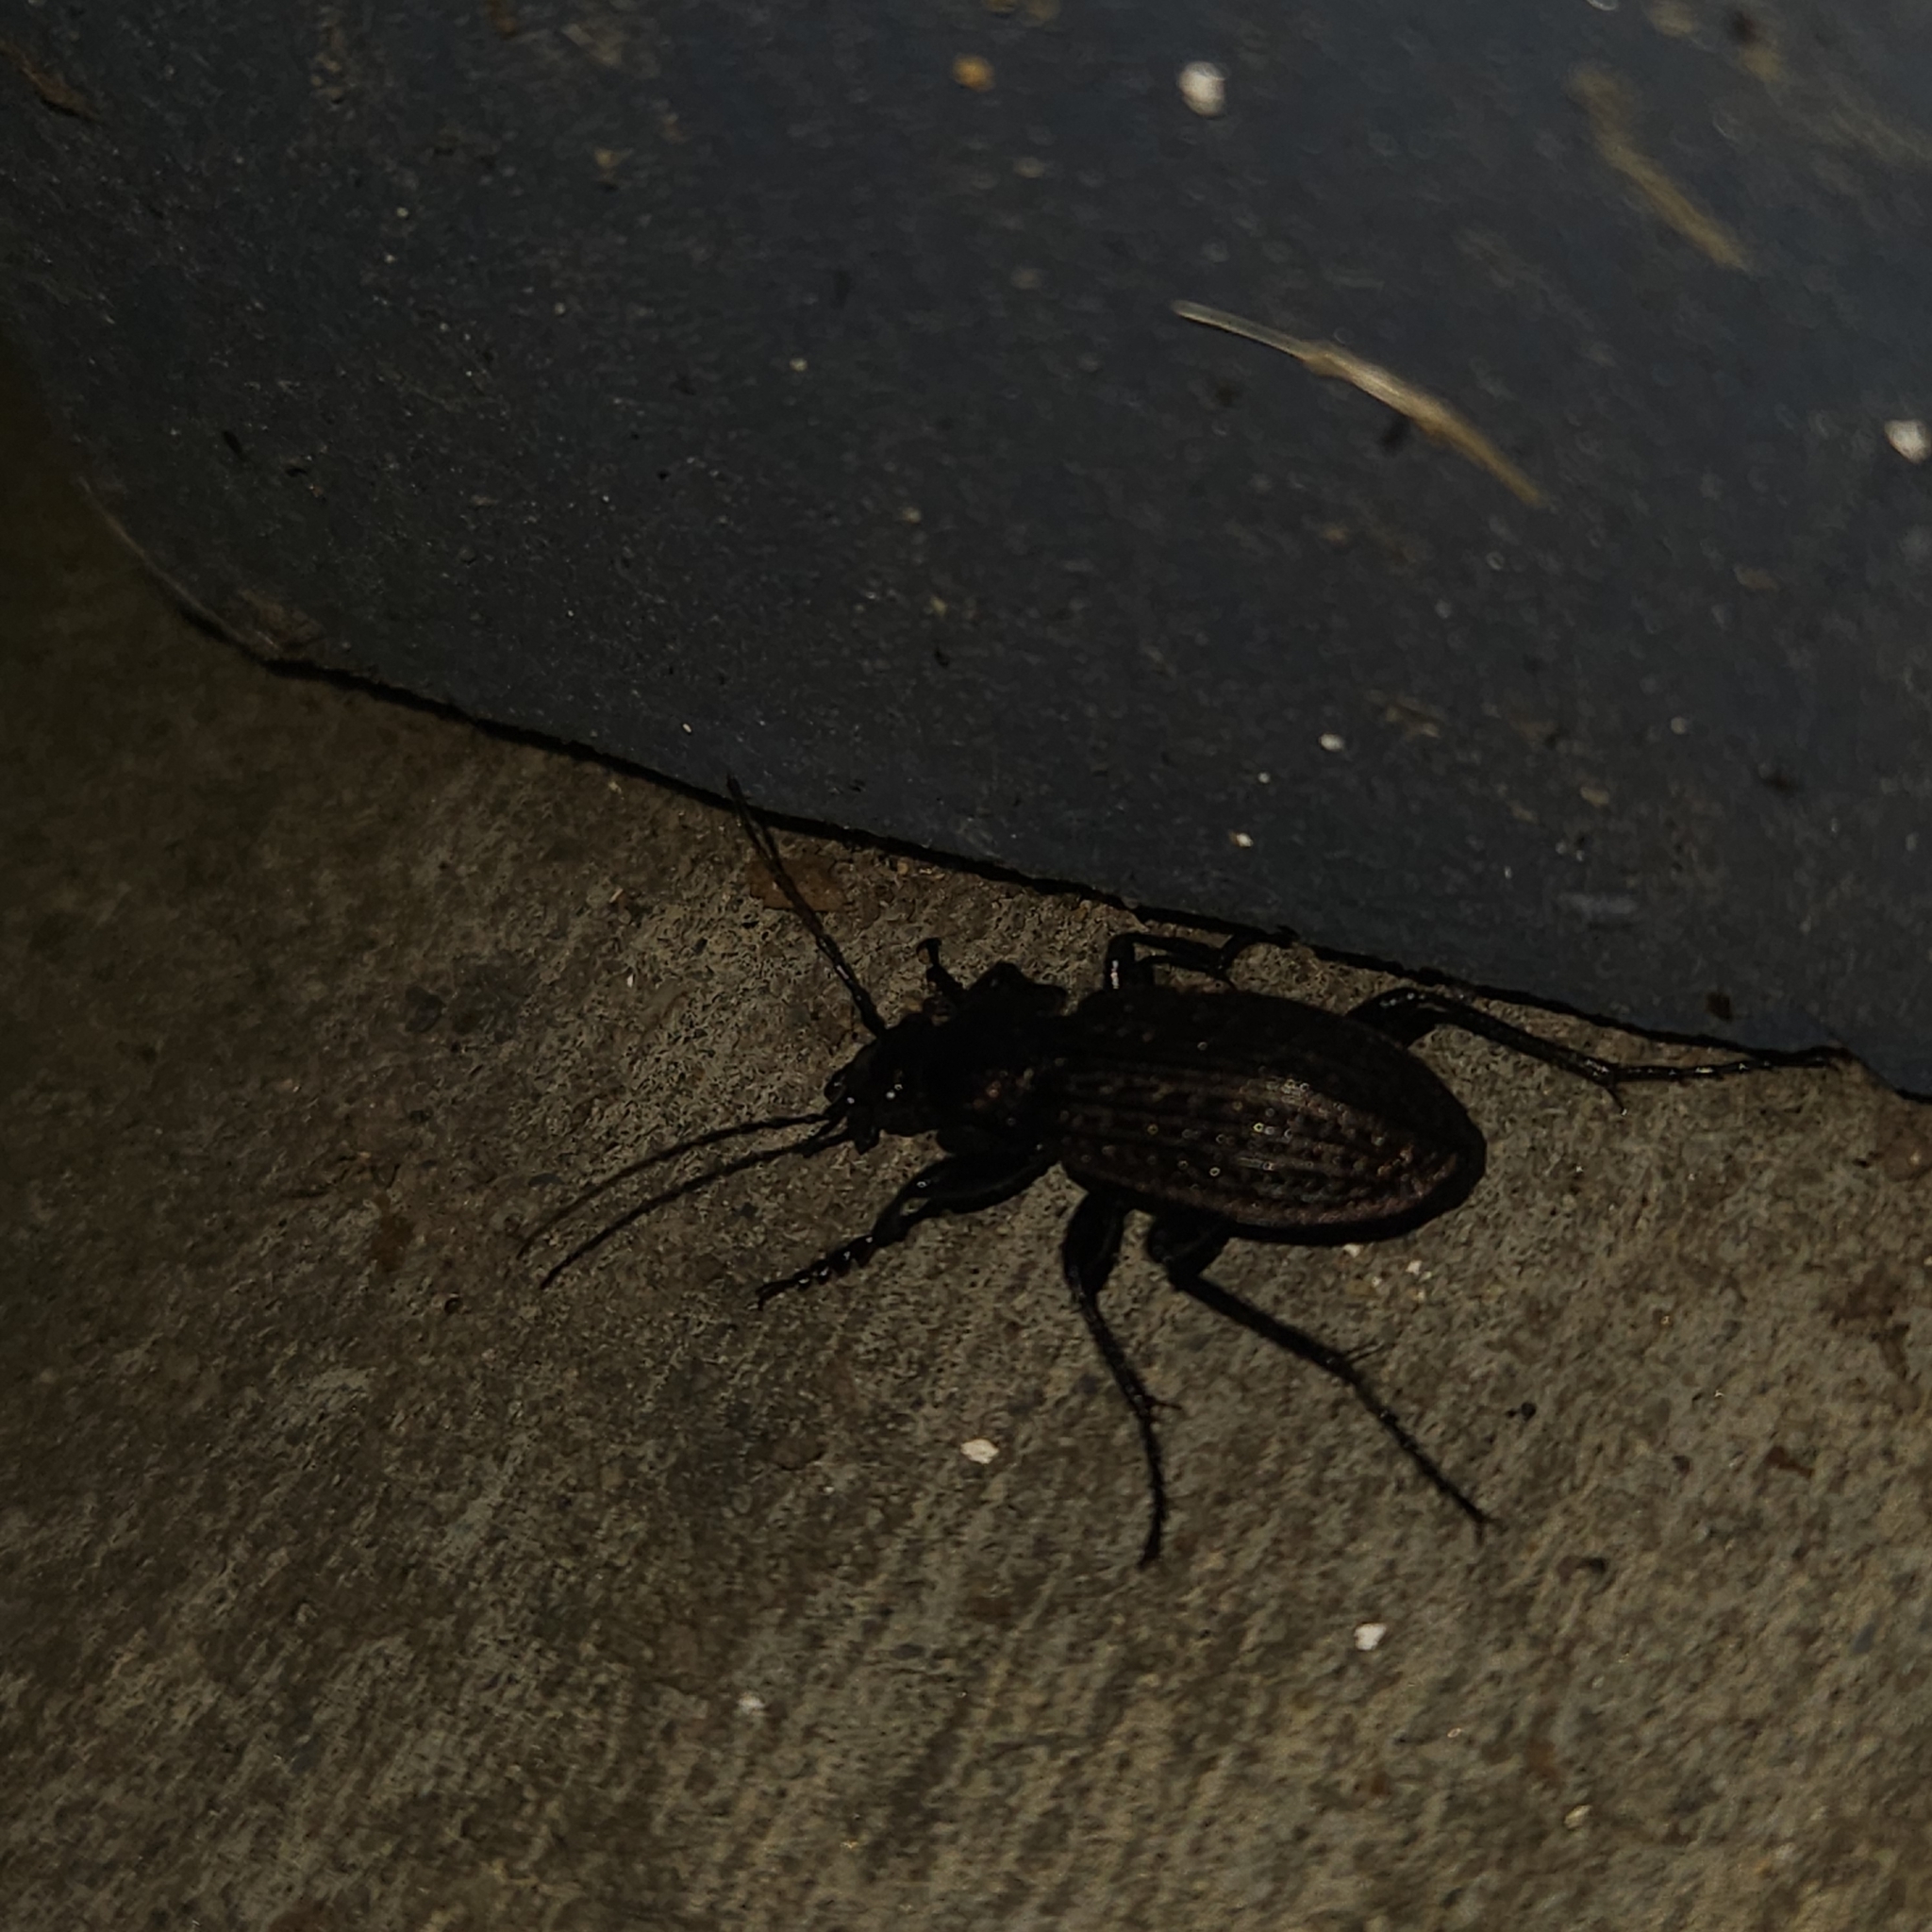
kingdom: Animalia
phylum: Arthropoda
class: Insecta
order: Coleoptera
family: Carabidae
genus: Carabus
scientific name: Carabus granulatus
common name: Granulate ground beetle
